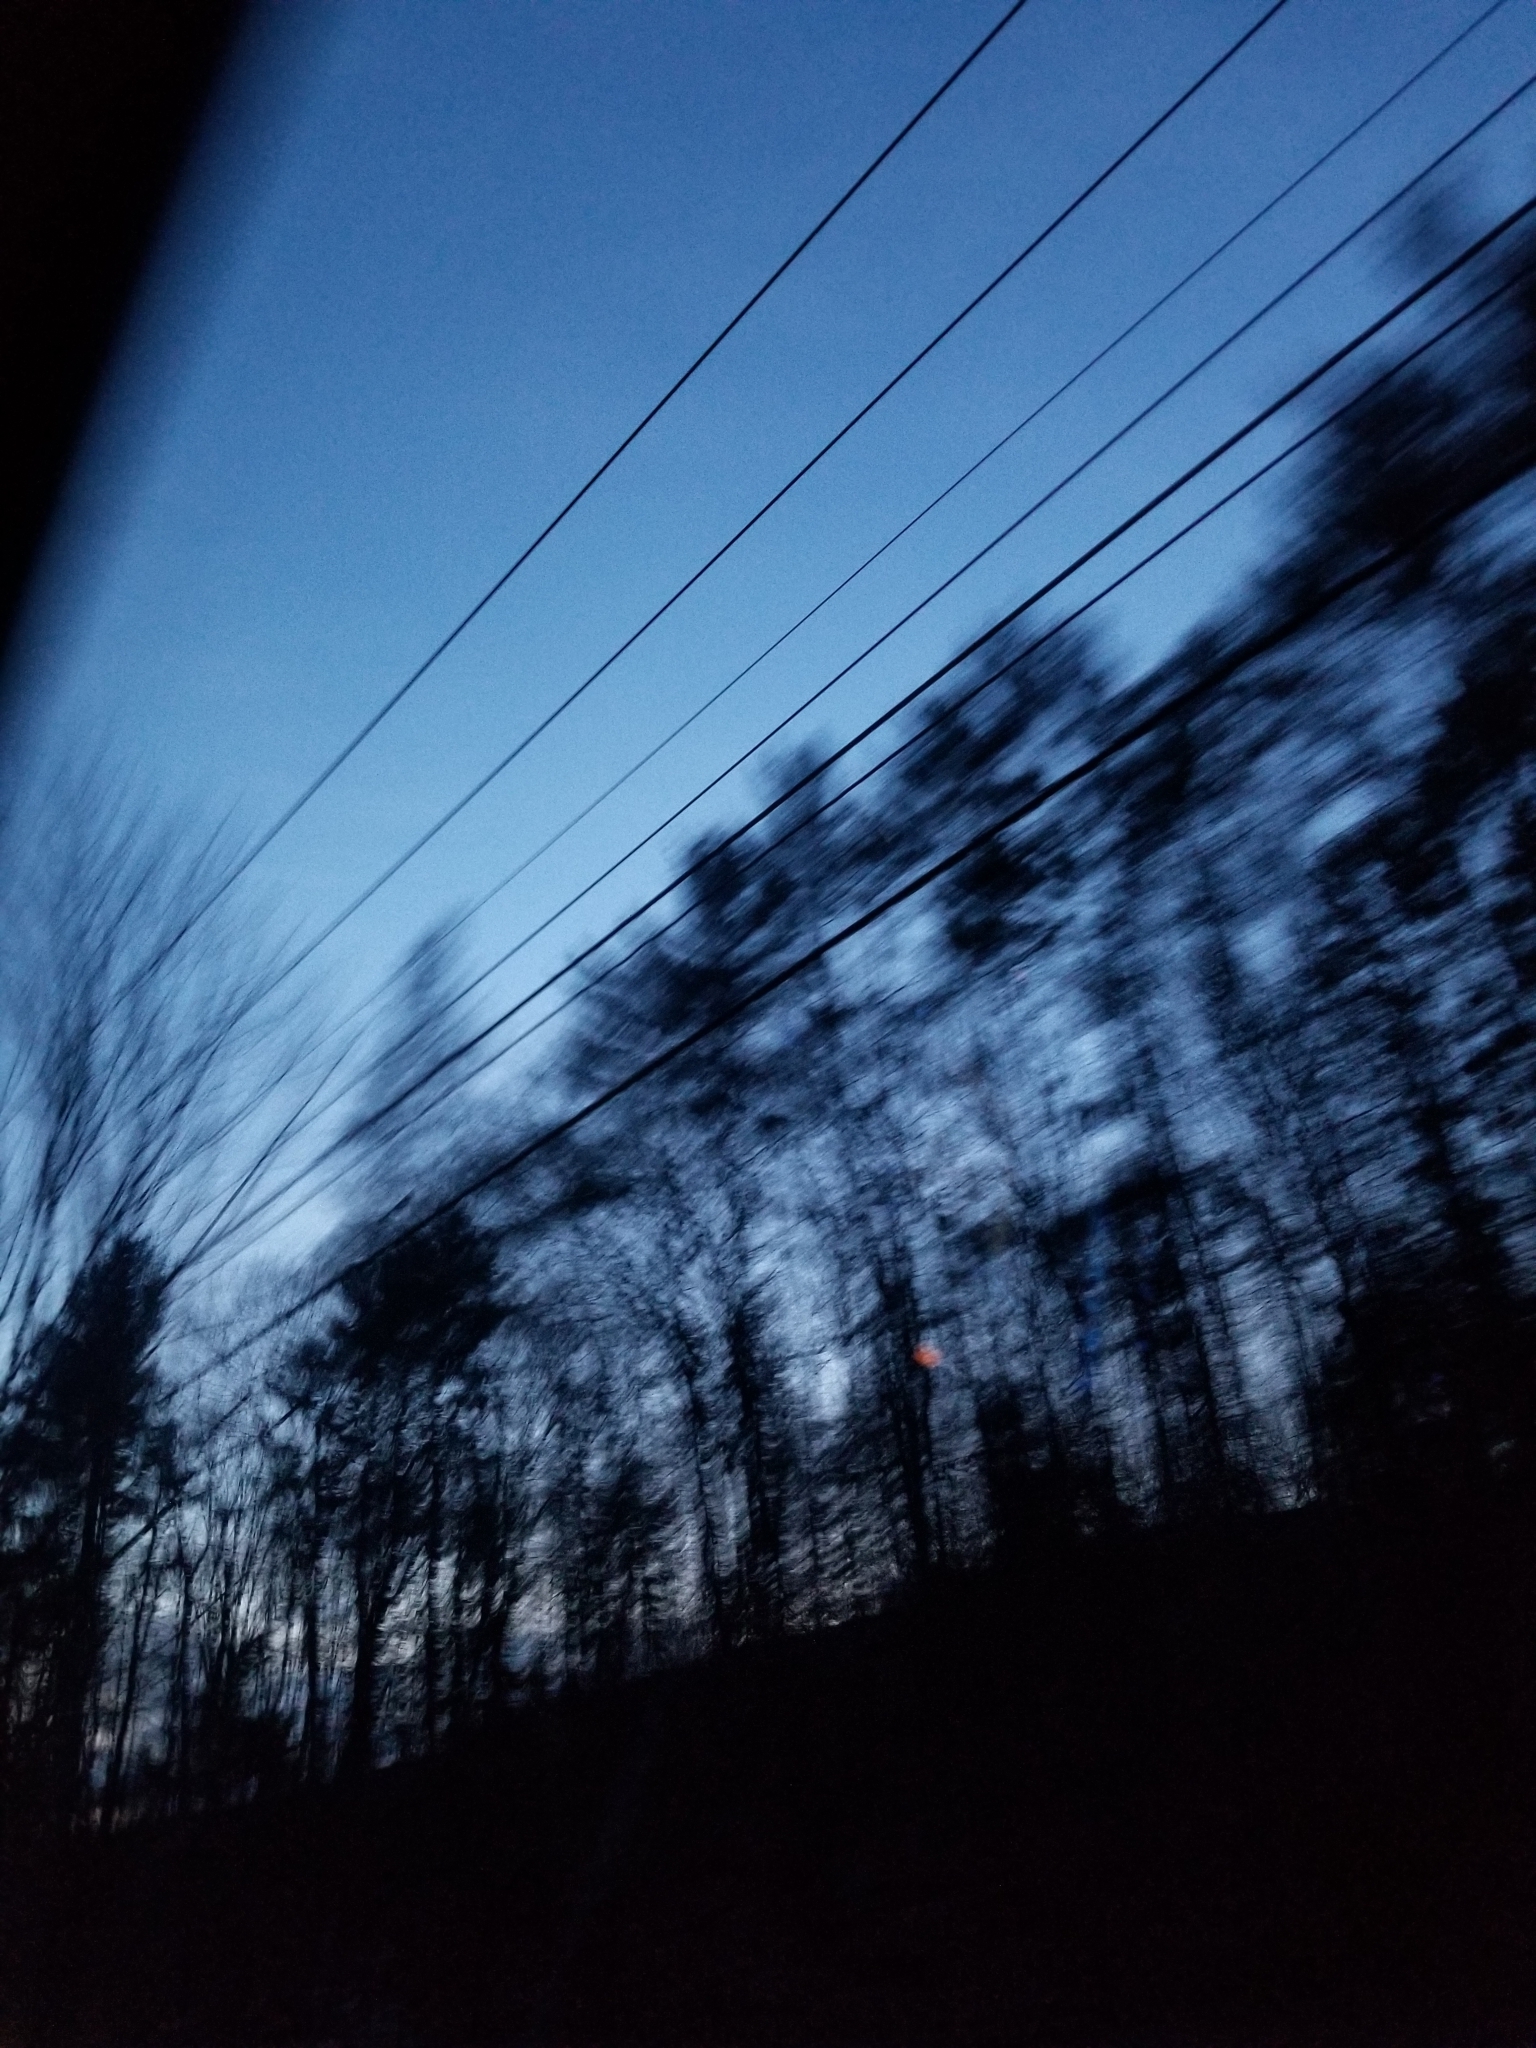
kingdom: Plantae
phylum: Tracheophyta
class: Pinopsida
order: Pinales
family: Pinaceae
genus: Pinus
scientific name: Pinus strobus
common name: Weymouth pine
